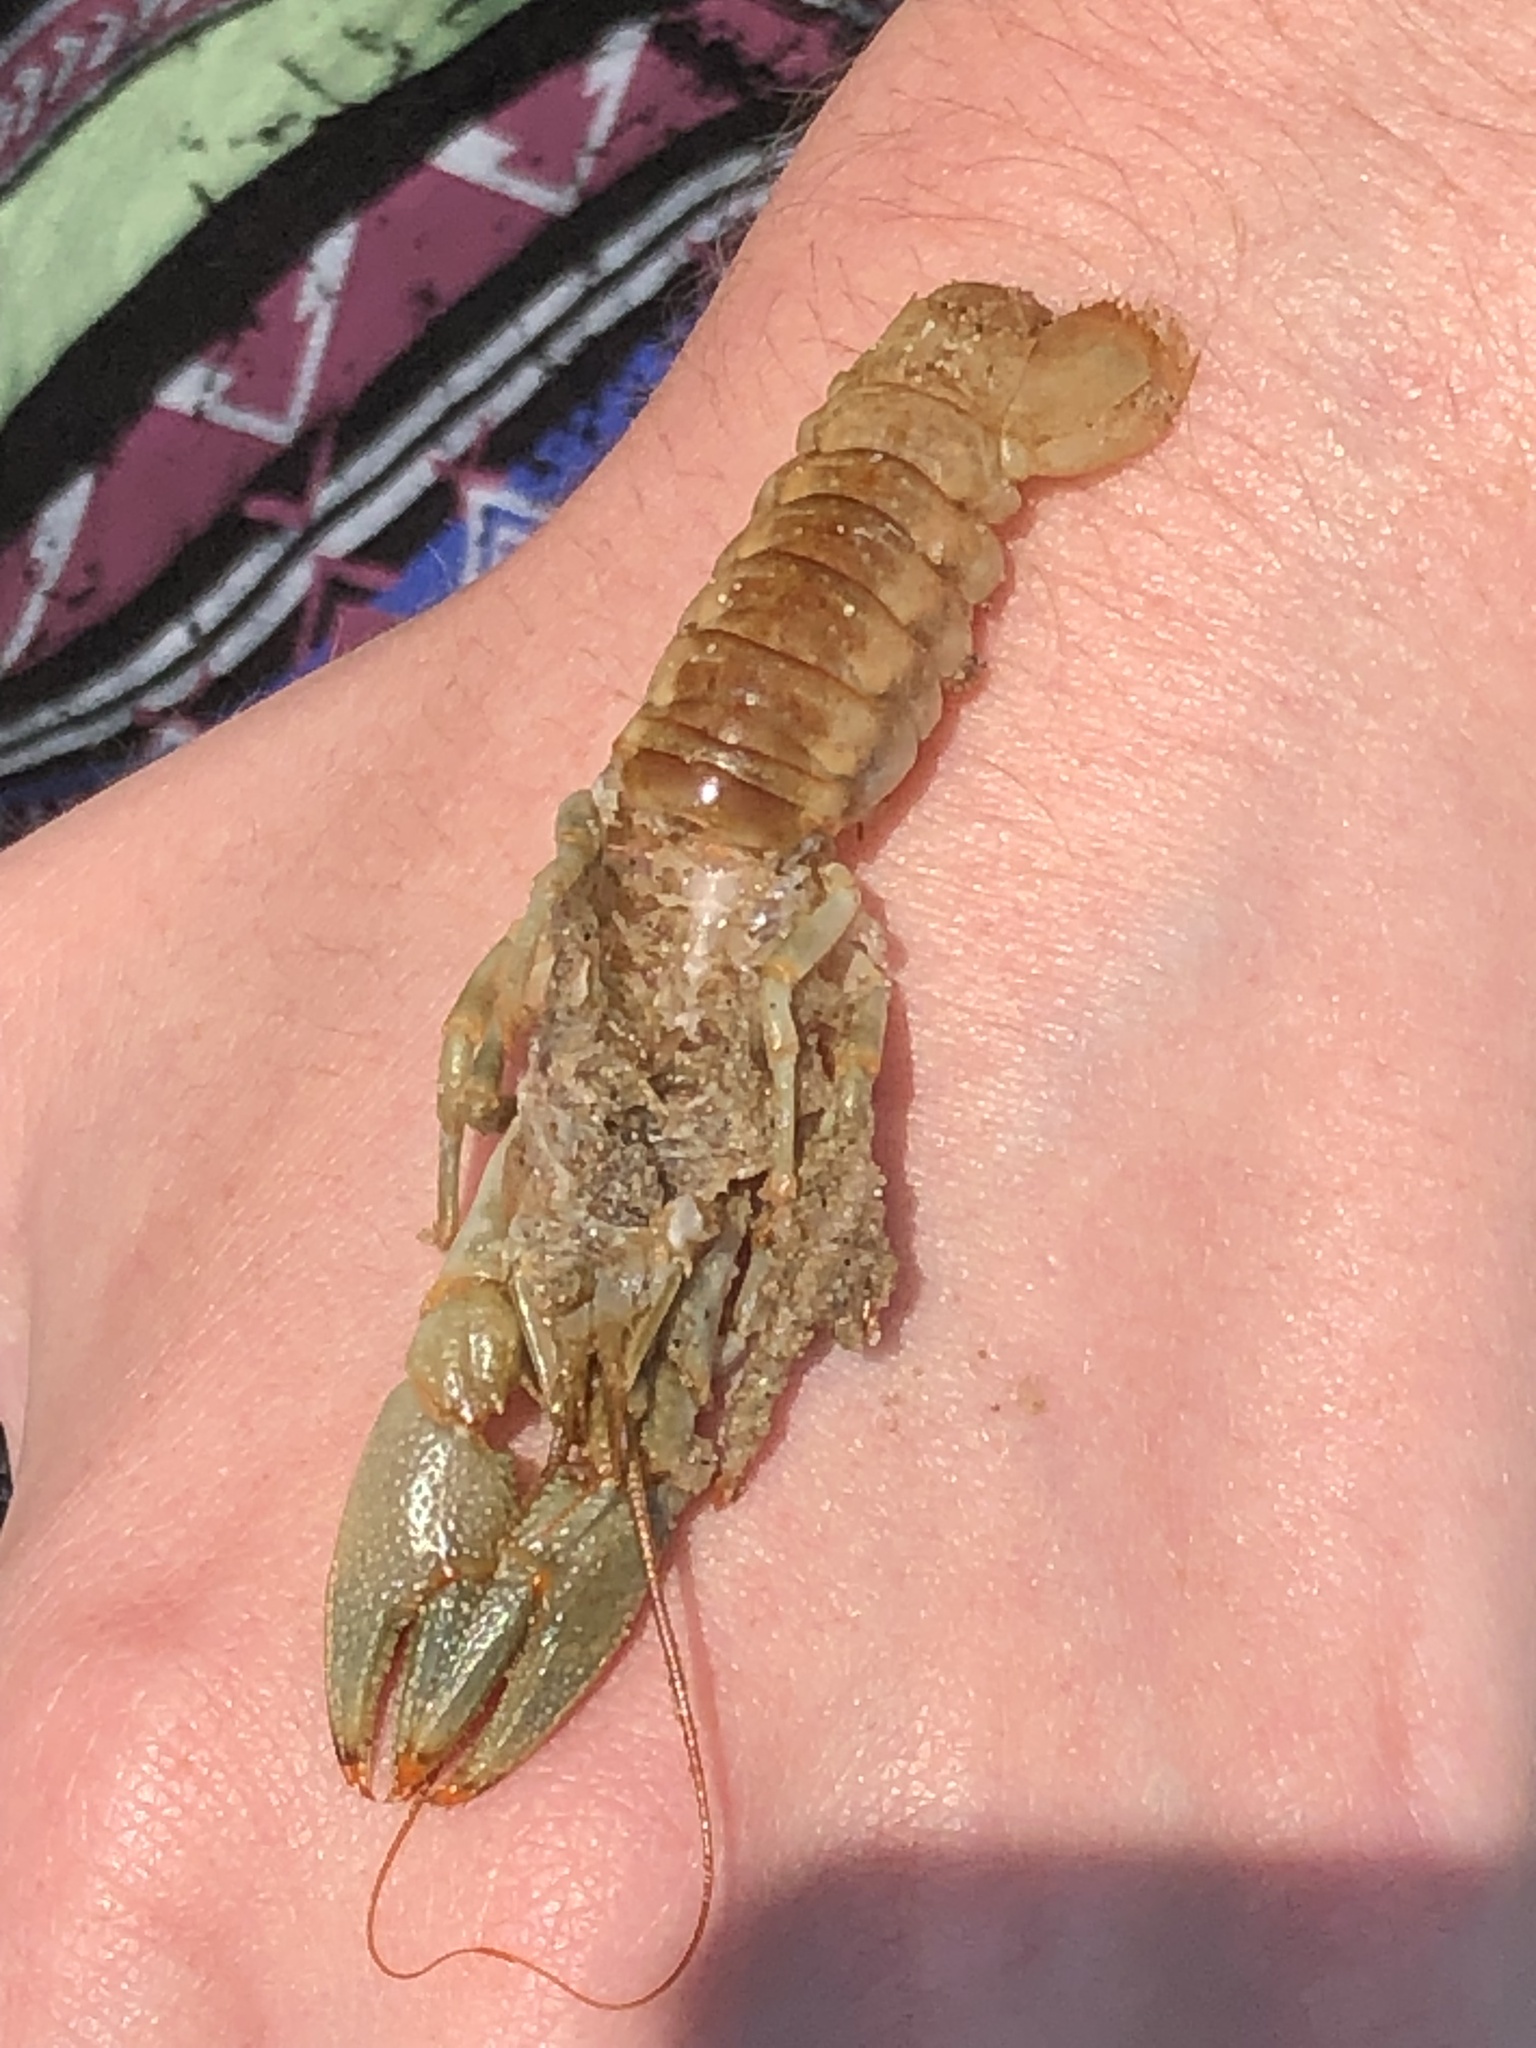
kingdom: Animalia
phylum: Arthropoda
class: Malacostraca
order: Decapoda
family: Cambaridae
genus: Faxonius
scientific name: Faxonius propinquus
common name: Northern clearwater crayfish
